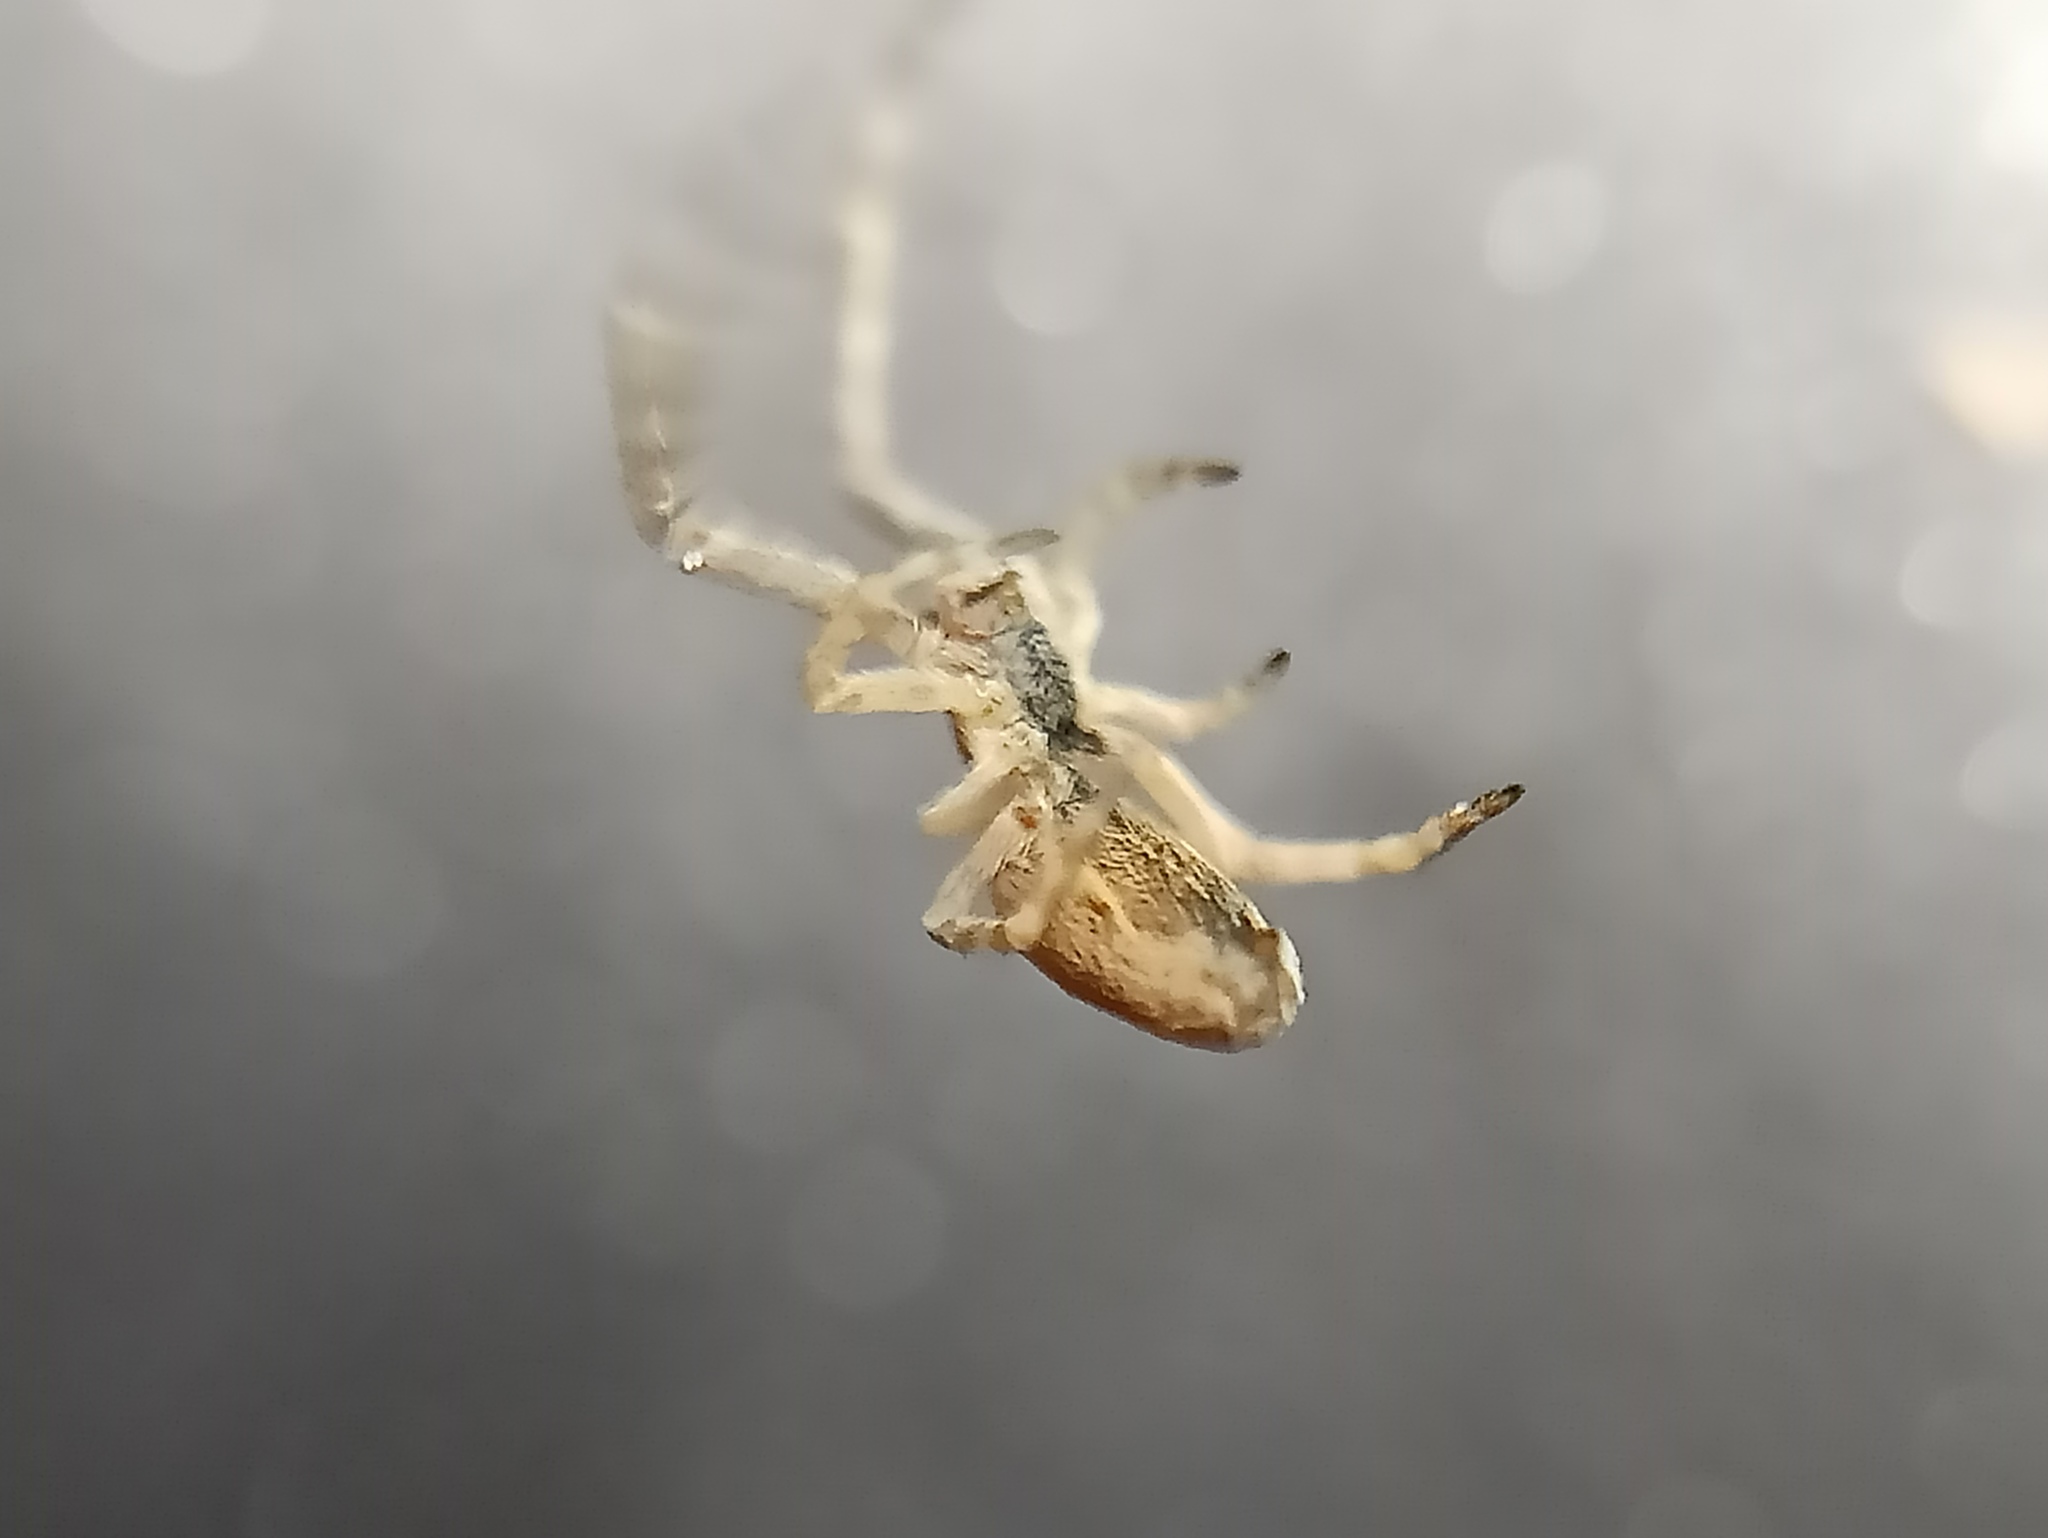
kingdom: Animalia
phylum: Arthropoda
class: Arachnida
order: Araneae
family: Uloboridae
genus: Uloborus
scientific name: Uloborus walckenaerius
